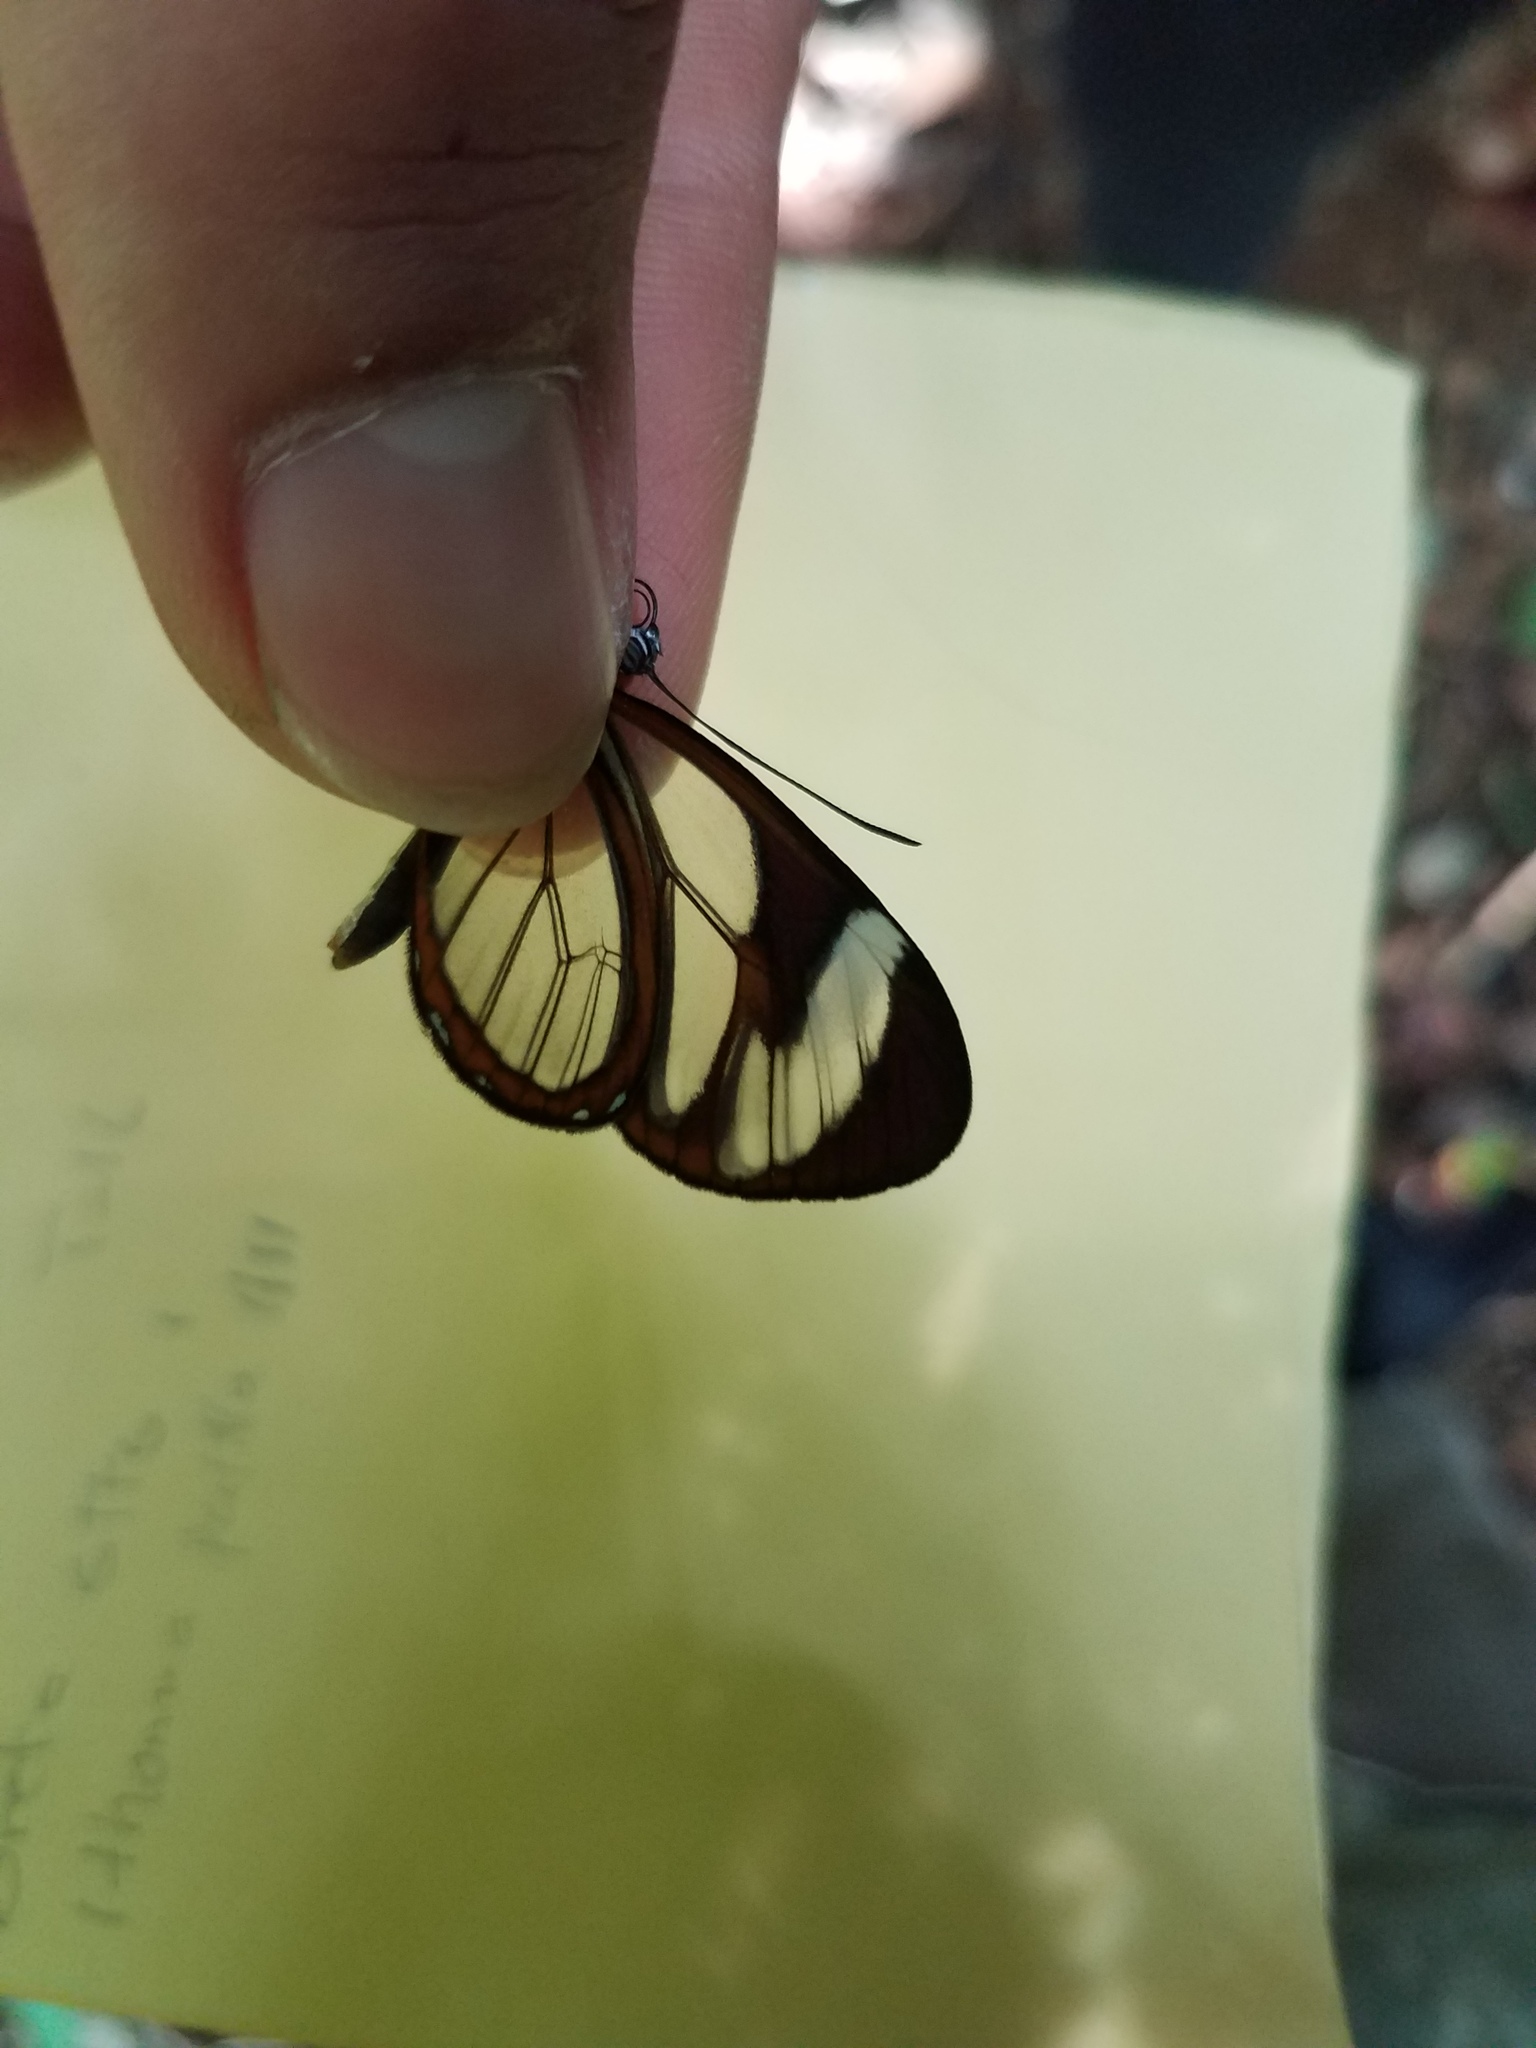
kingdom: Animalia
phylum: Arthropoda
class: Insecta
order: Lepidoptera
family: Nymphalidae
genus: Ithomia
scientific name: Ithomia patilla
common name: Patilla clearwing
